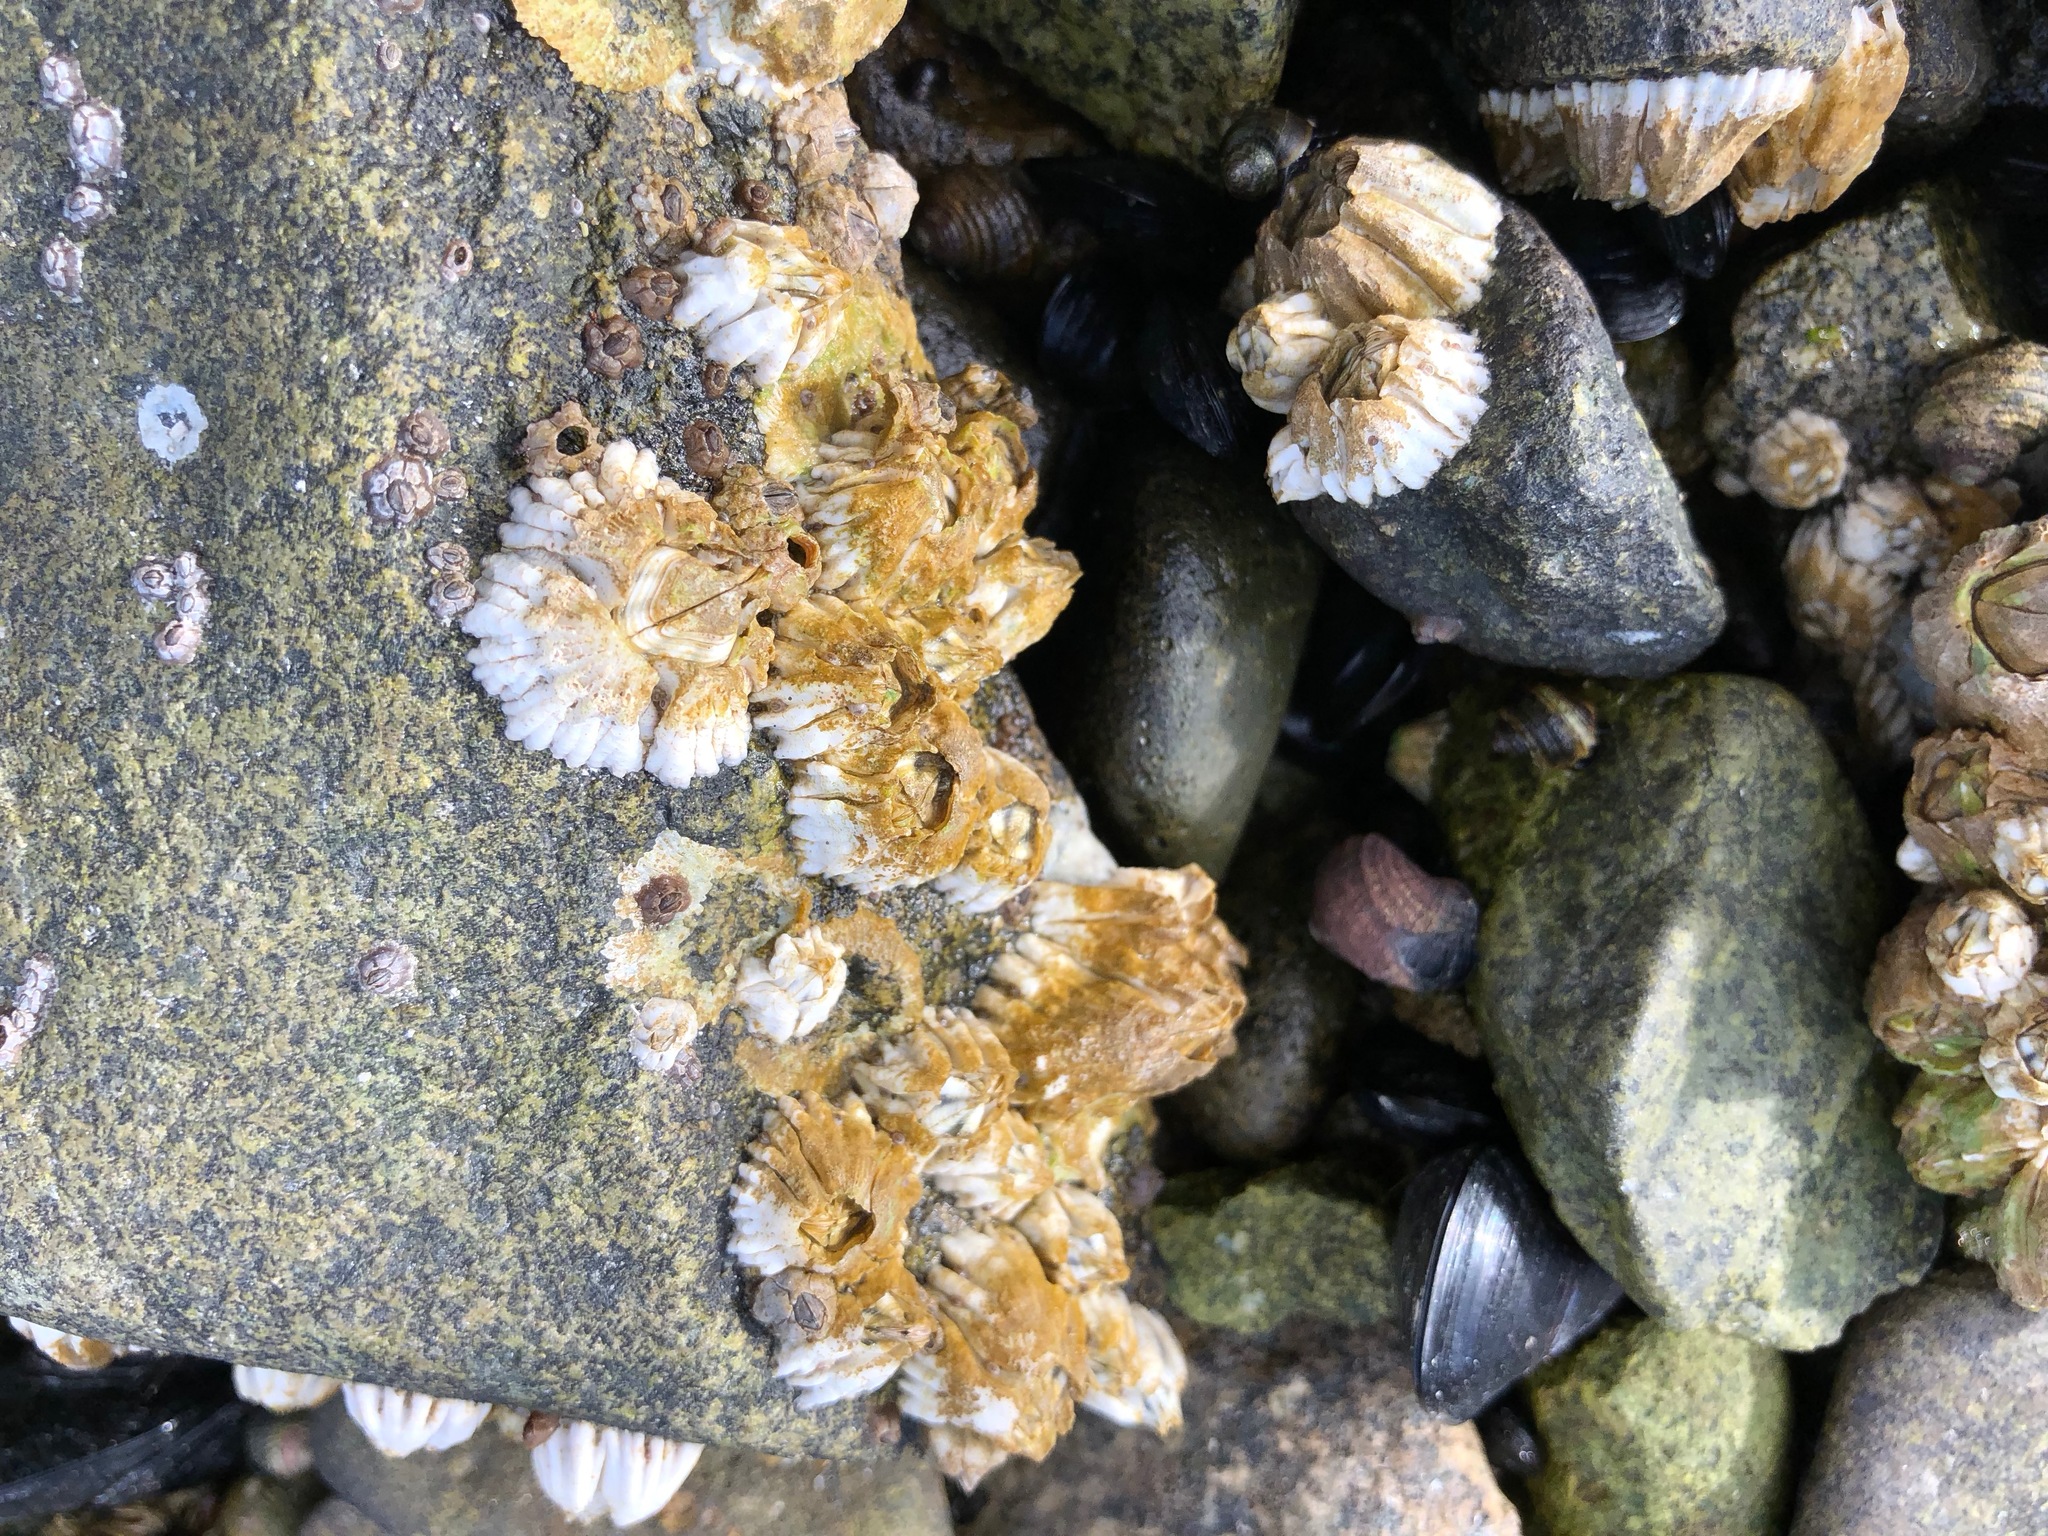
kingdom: Animalia
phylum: Arthropoda
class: Maxillopoda
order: Sessilia
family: Balanidae
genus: Balanus
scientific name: Balanus glandula
